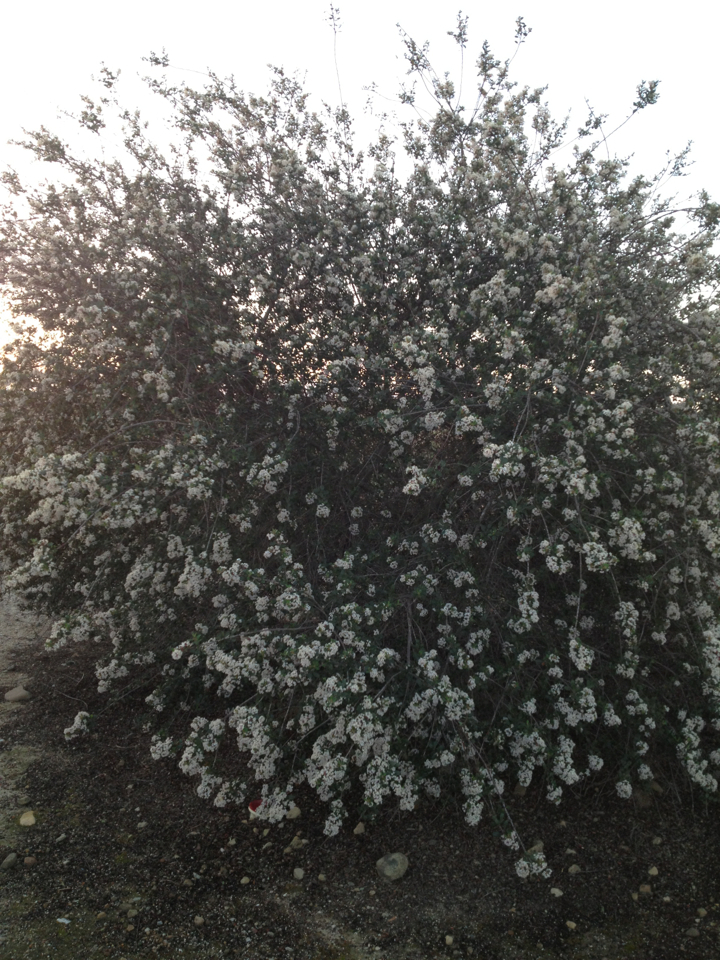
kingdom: Plantae
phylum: Tracheophyta
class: Magnoliopsida
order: Rosales
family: Rhamnaceae
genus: Ceanothus
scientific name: Ceanothus megacarpus
